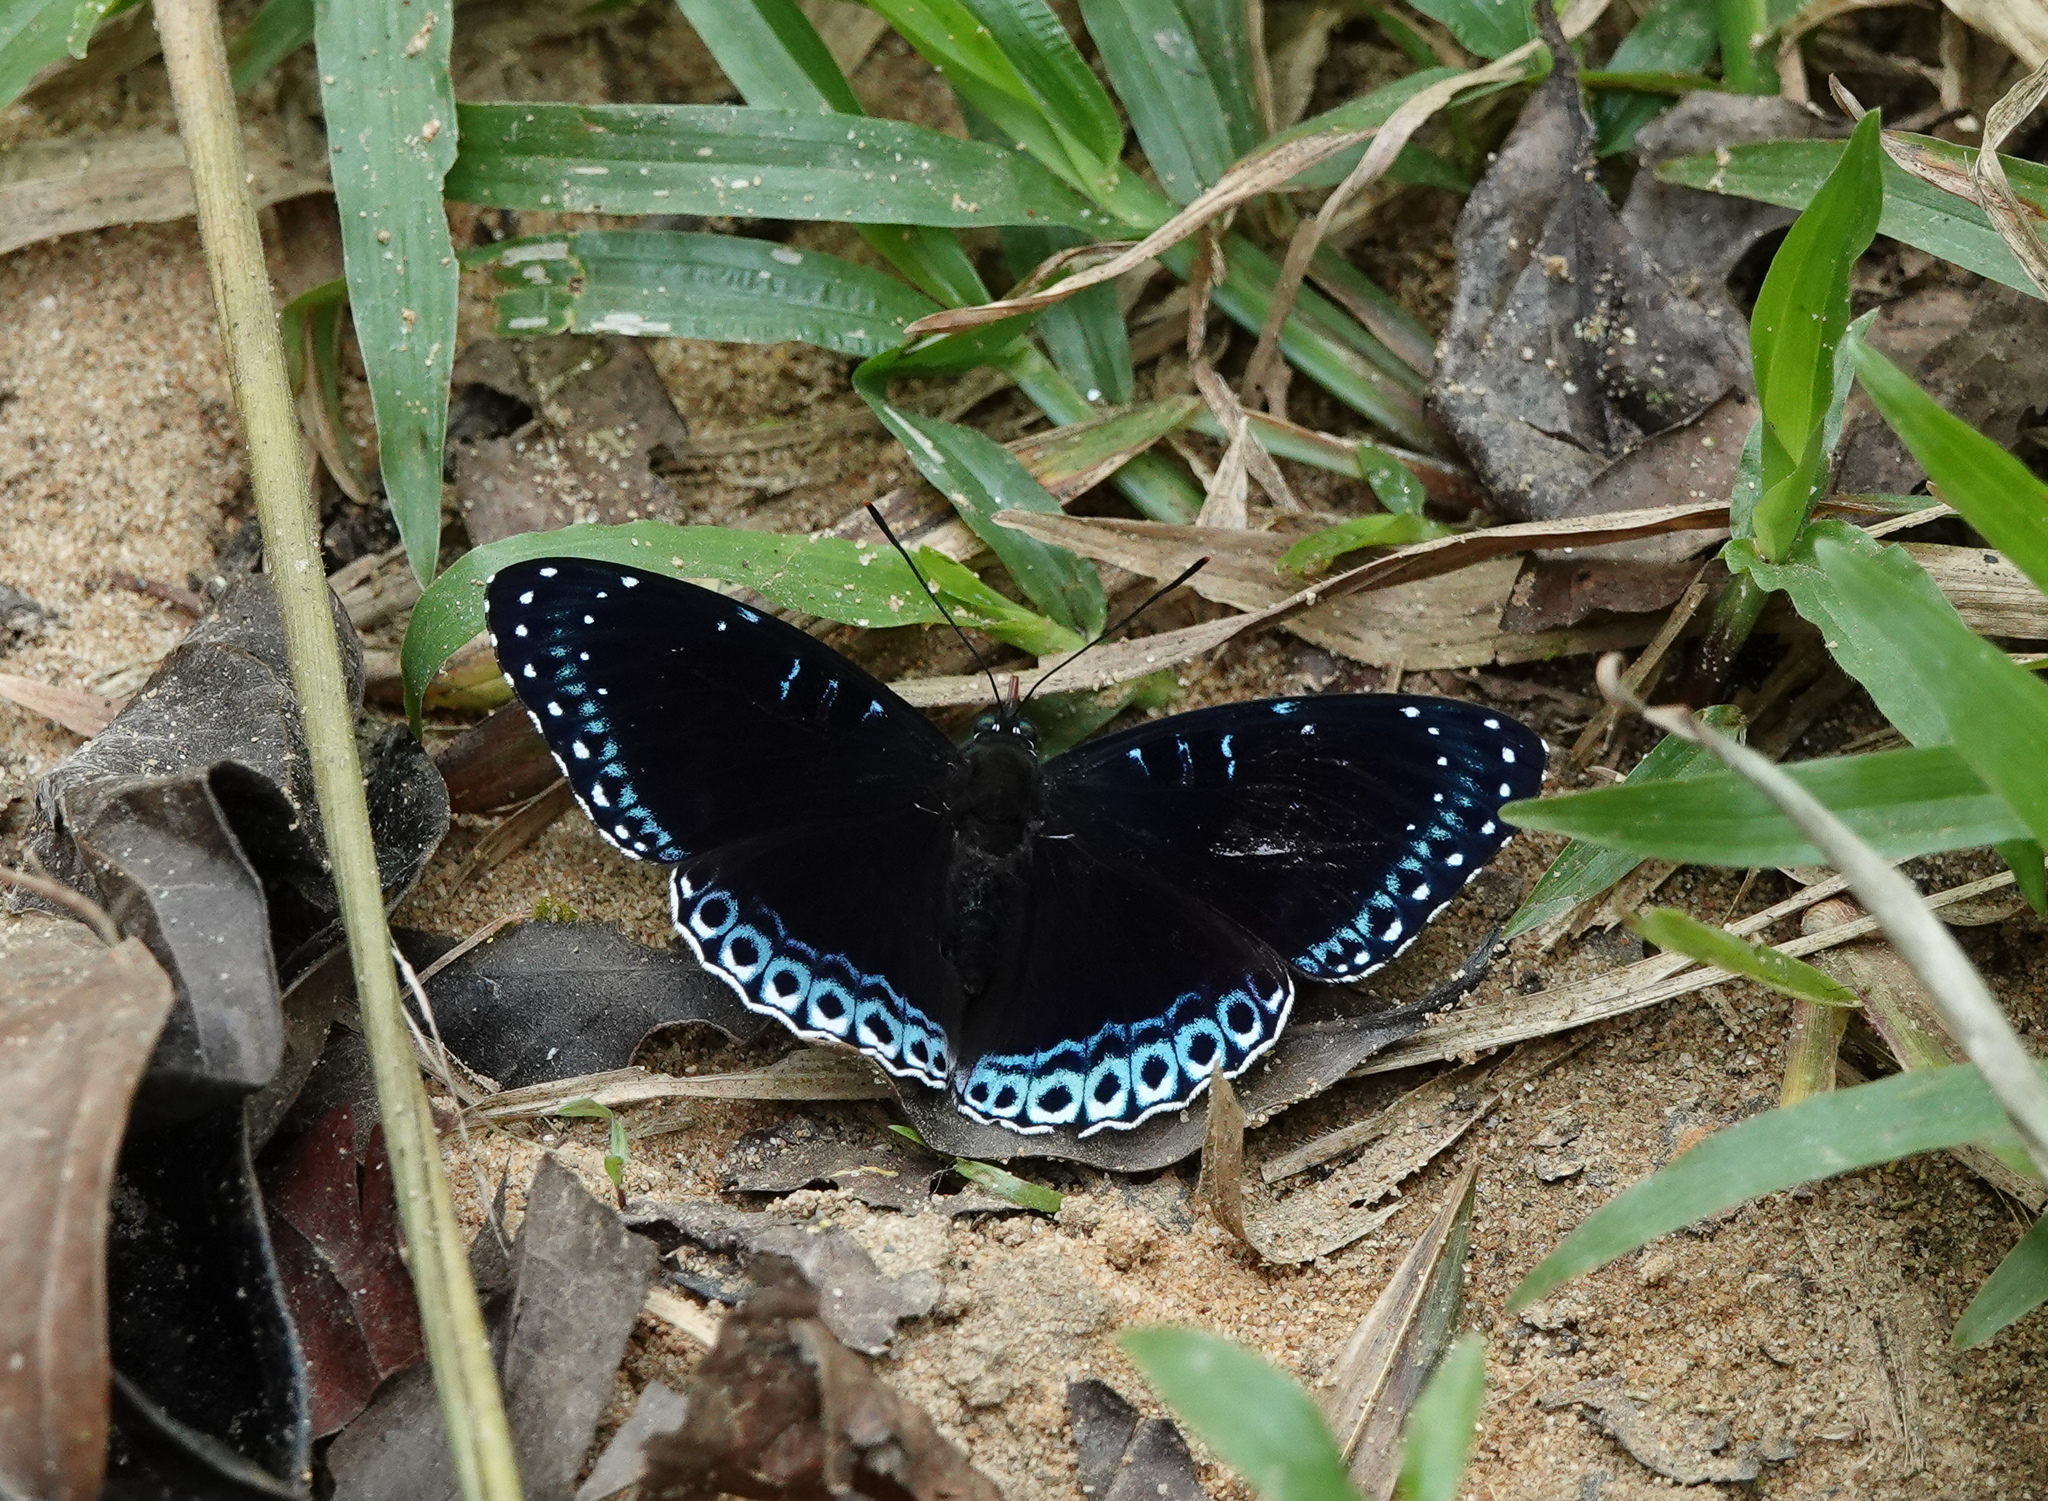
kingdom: Animalia
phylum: Arthropoda
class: Insecta
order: Lepidoptera
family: Nymphalidae
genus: Stibochiona
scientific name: Stibochiona nicea
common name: Popinjay
